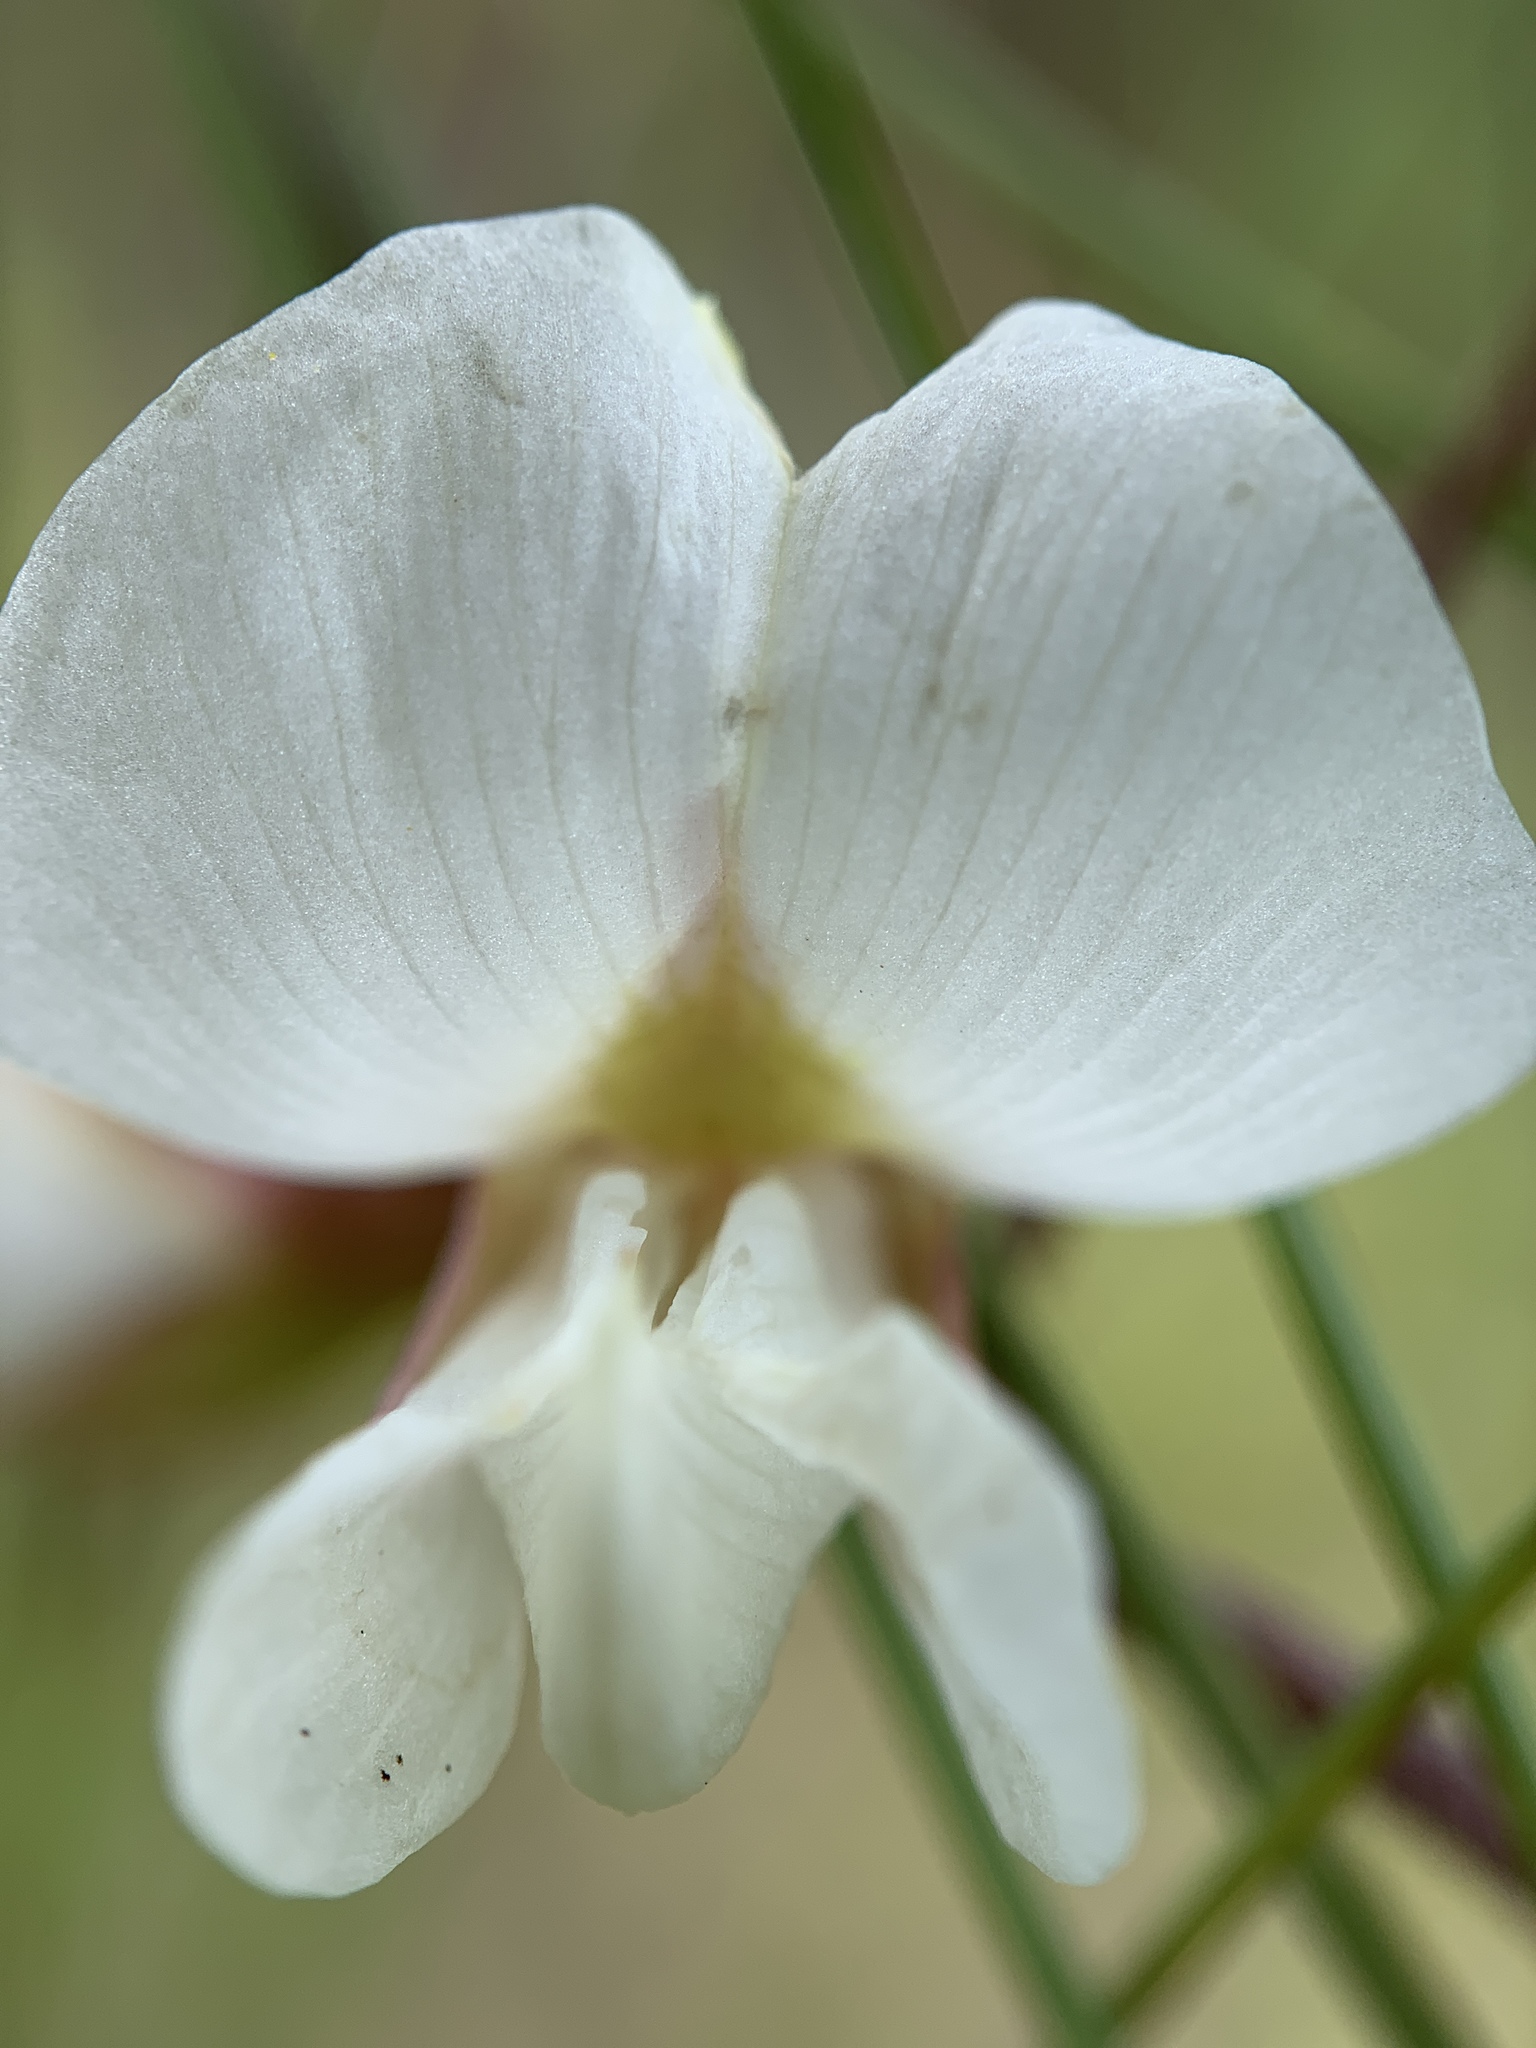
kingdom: Plantae
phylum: Tracheophyta
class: Magnoliopsida
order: Fabales
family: Fabaceae
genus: Galactia
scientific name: Galactia elliottii
